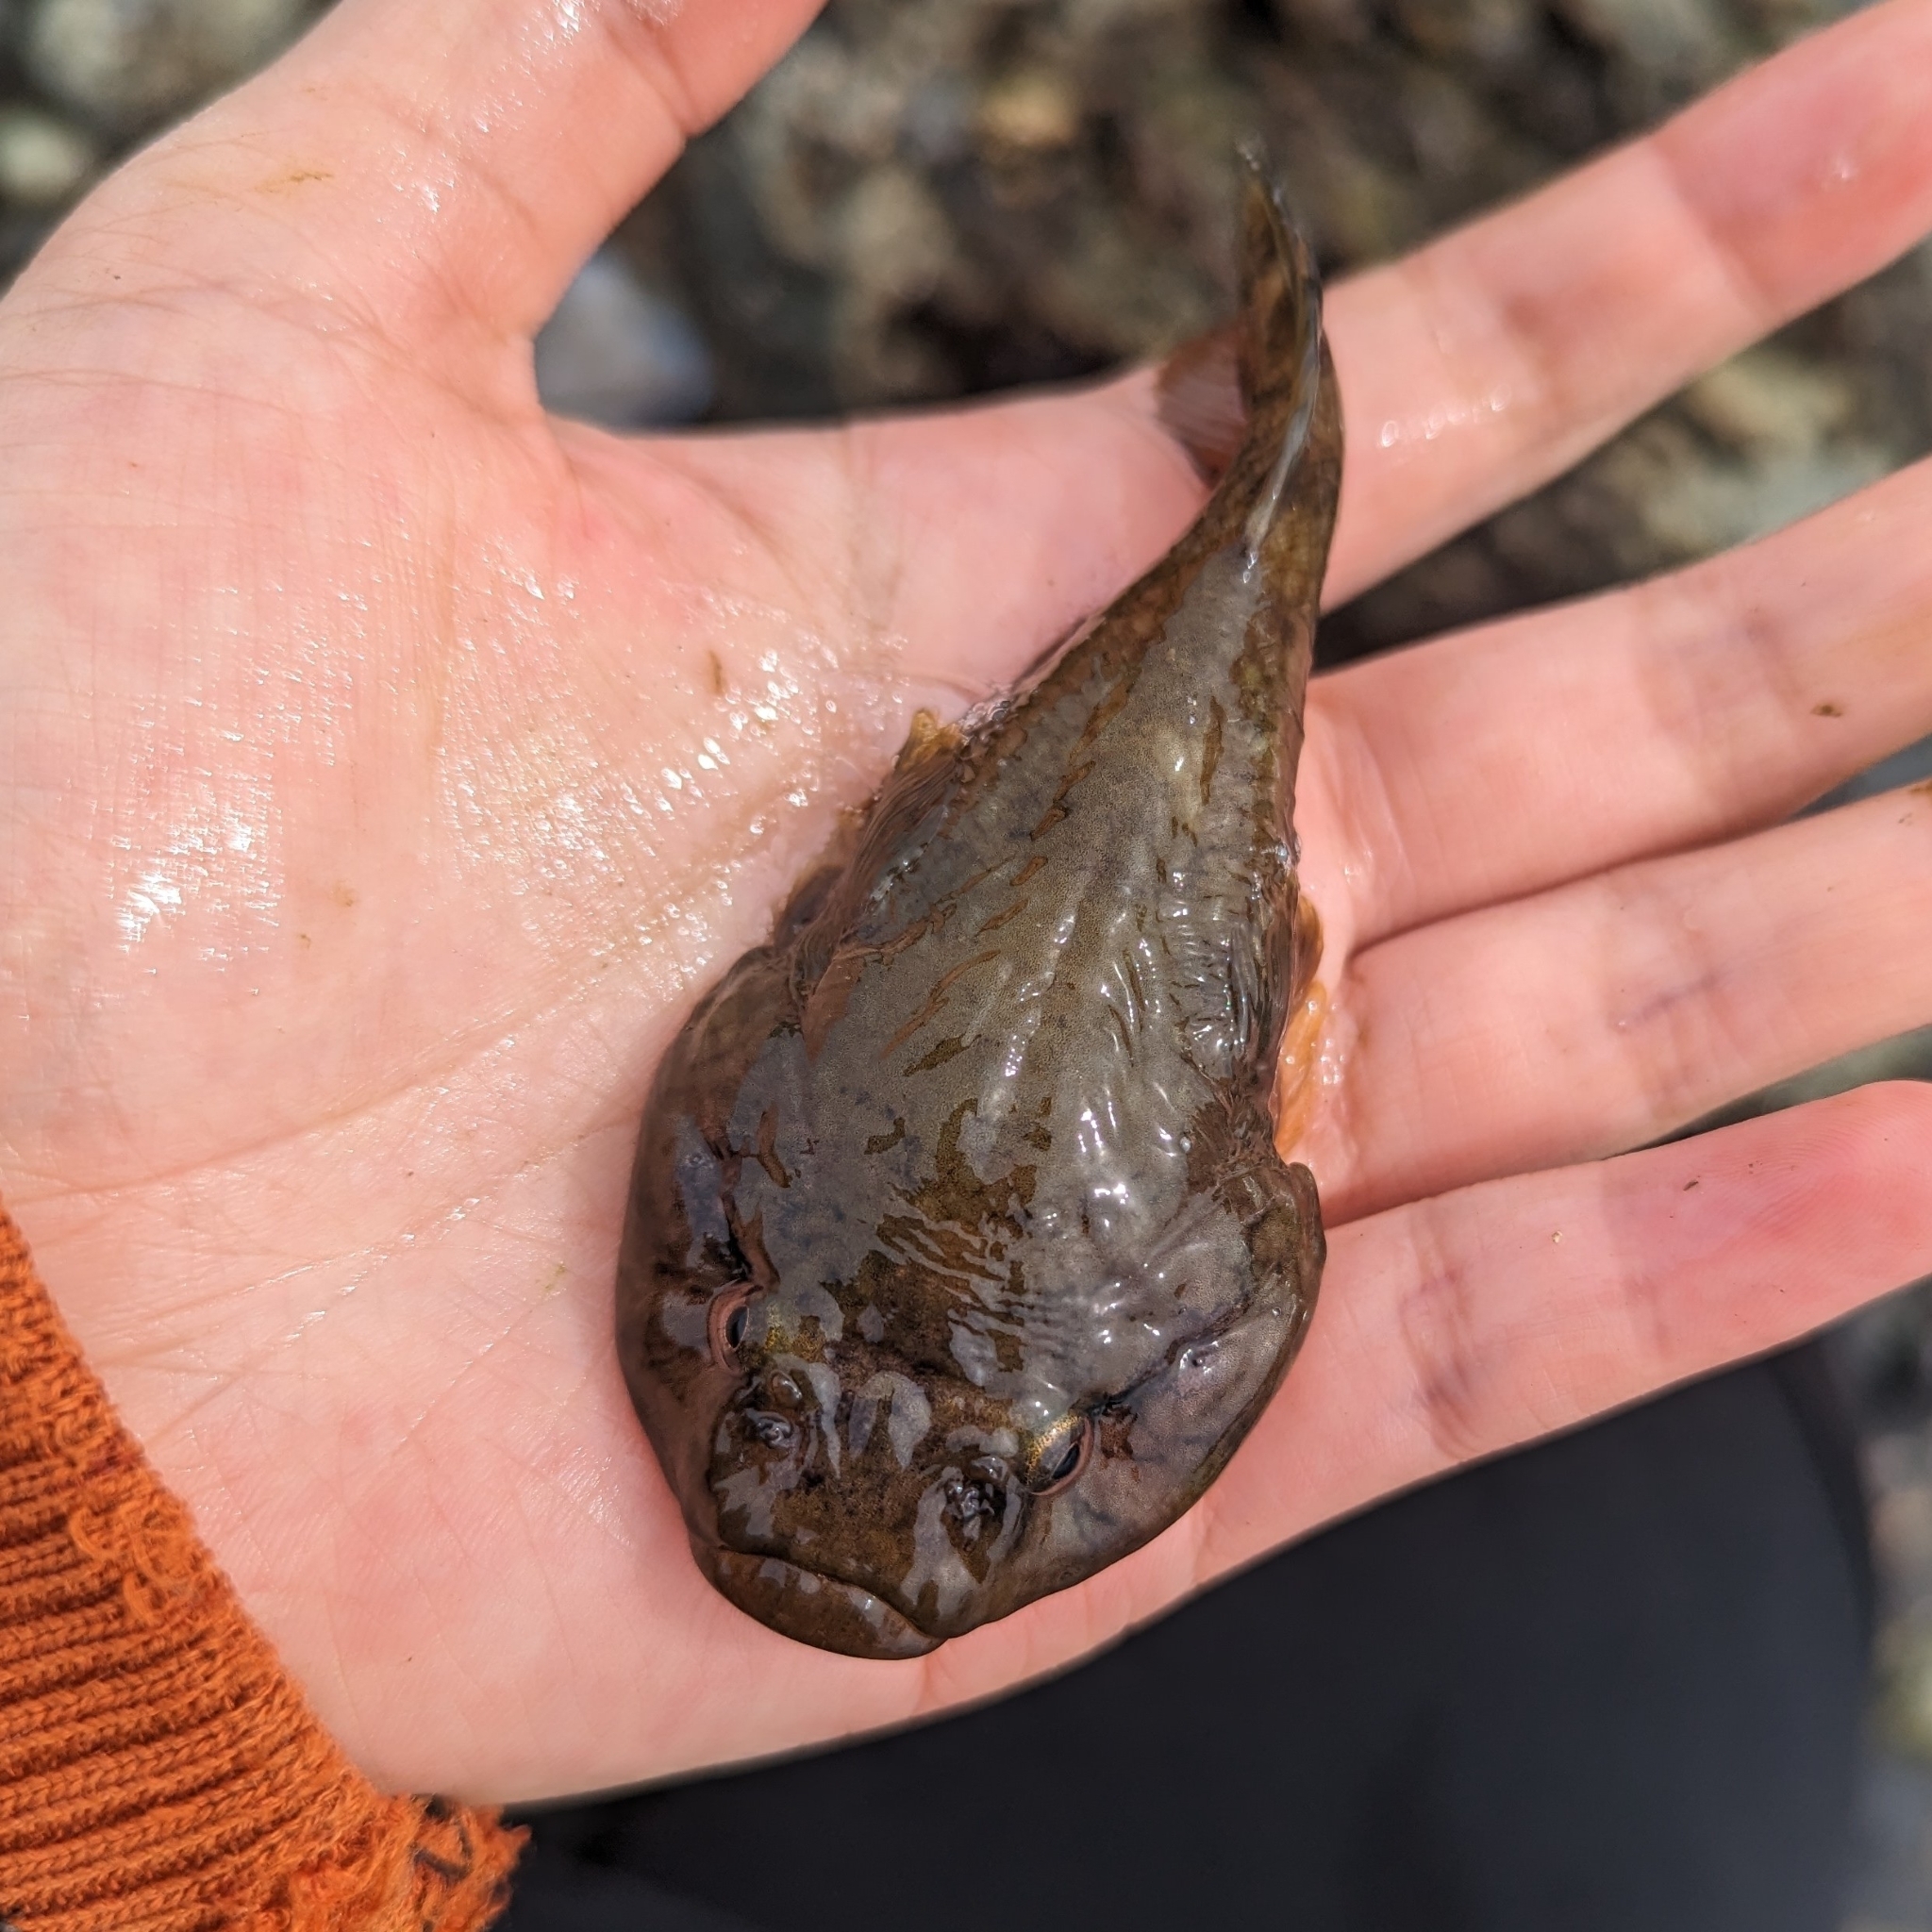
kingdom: Animalia
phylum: Chordata
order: Gobiesociformes
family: Gobiesocidae
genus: Gobiesox
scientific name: Gobiesox maeandricus
